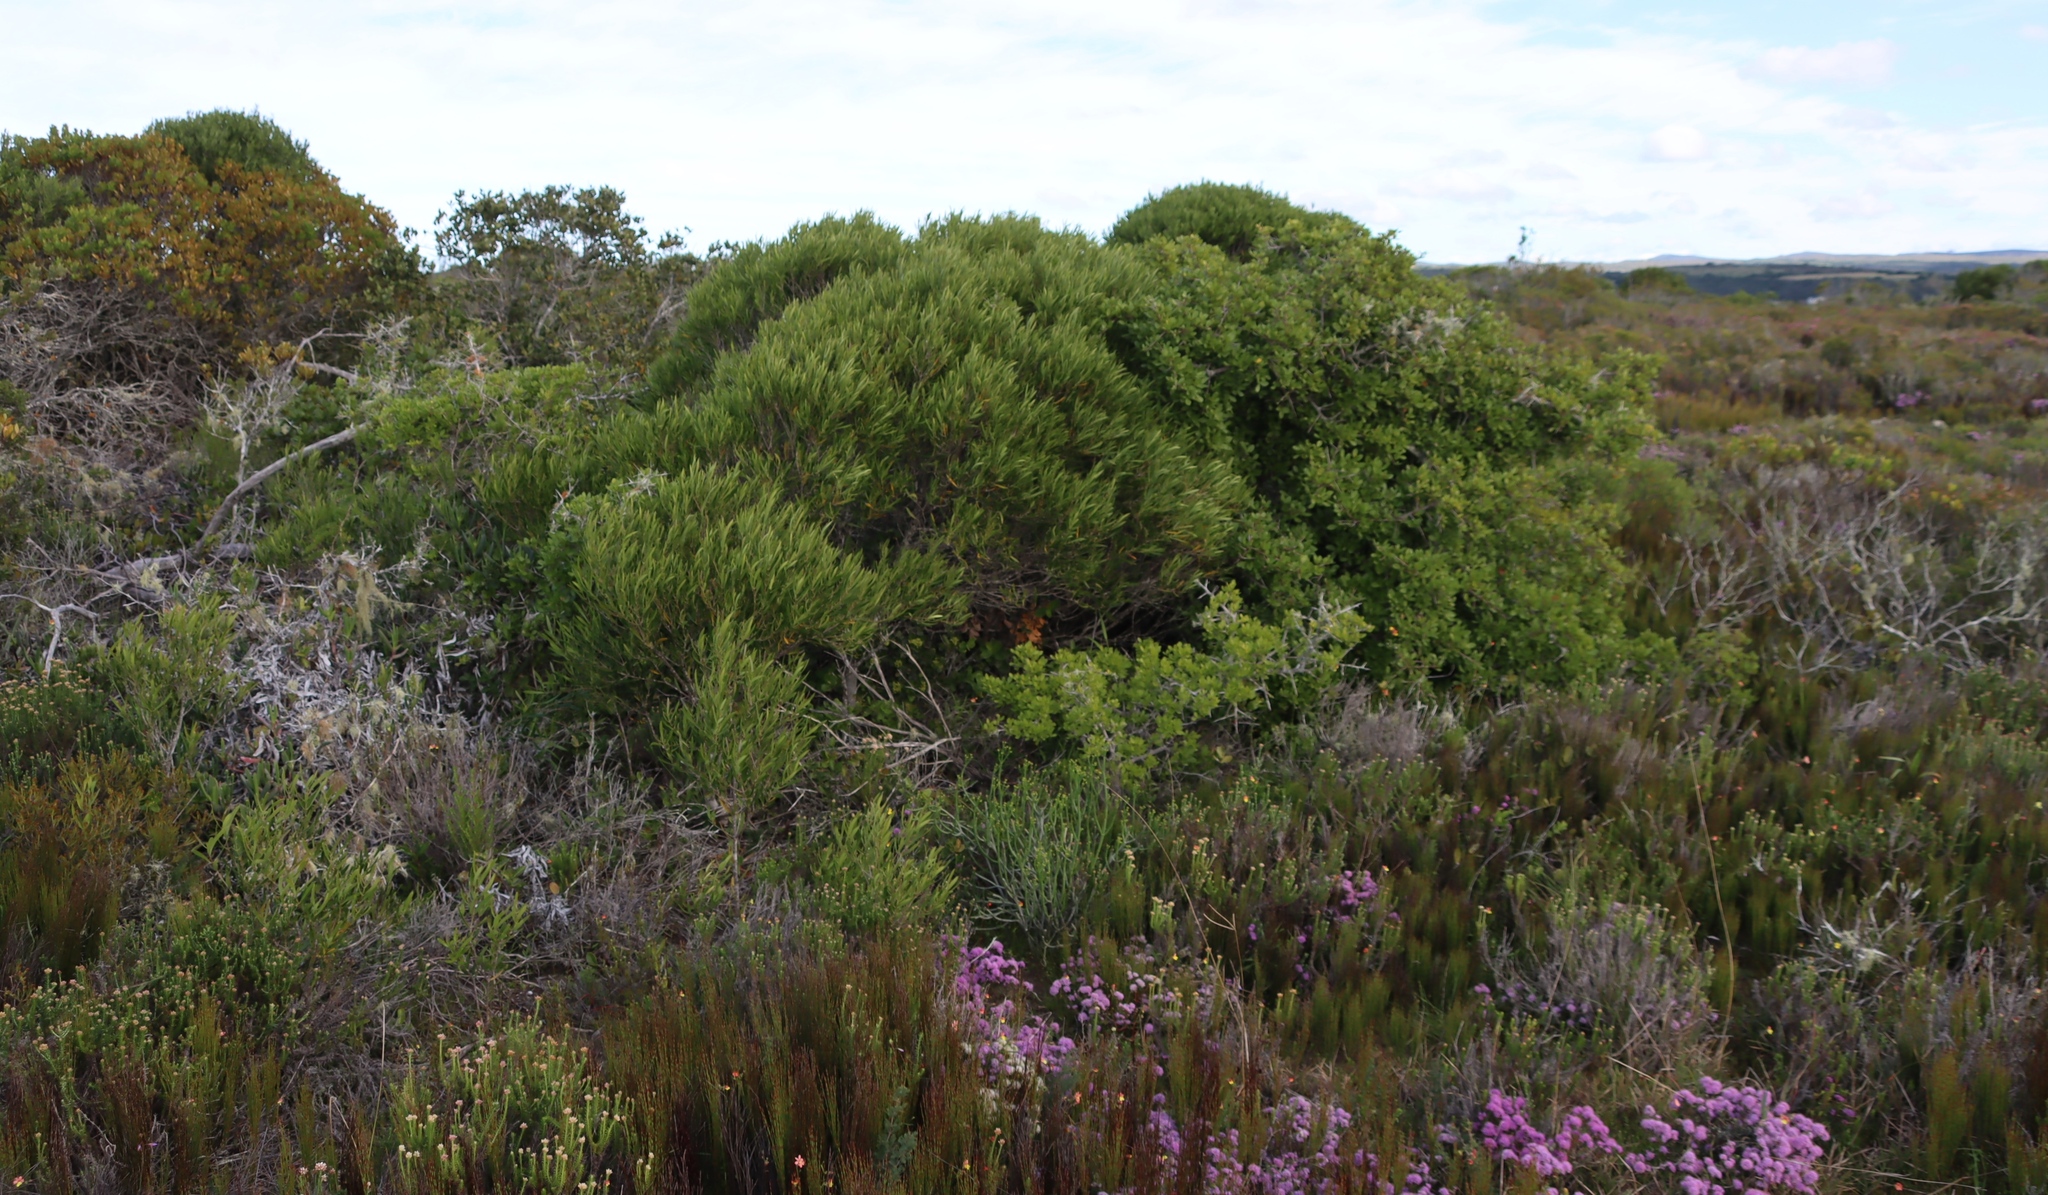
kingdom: Plantae
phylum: Tracheophyta
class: Magnoliopsida
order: Fabales
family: Fabaceae
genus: Acacia
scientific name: Acacia cyclops
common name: Coastal wattle
